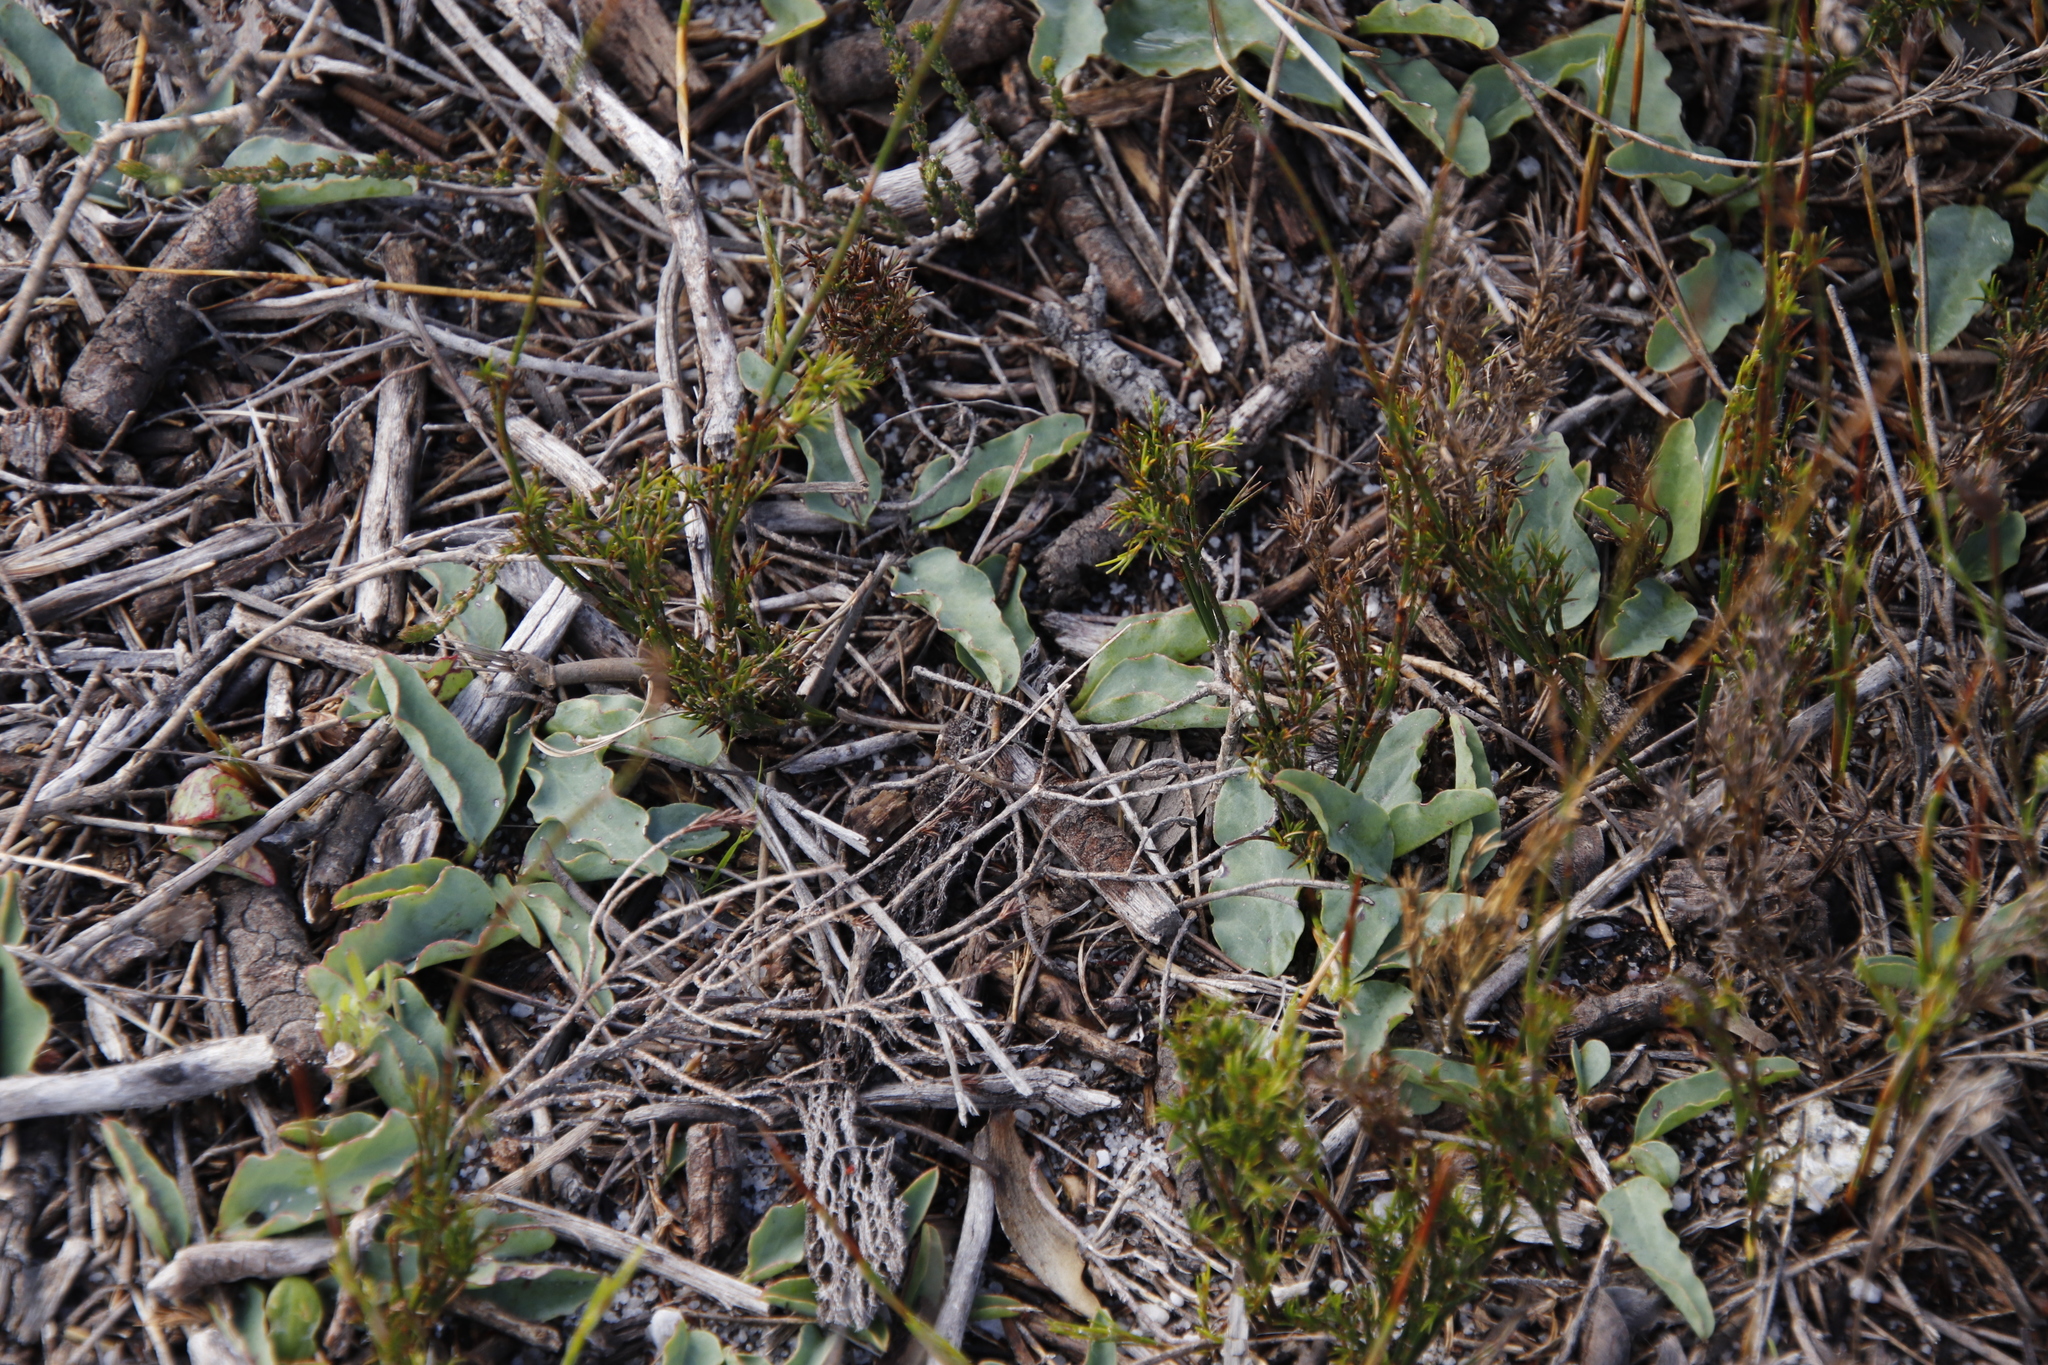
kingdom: Plantae
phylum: Tracheophyta
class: Magnoliopsida
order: Malpighiales
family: Euphorbiaceae
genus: Euphorbia
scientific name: Euphorbia tuberosa
